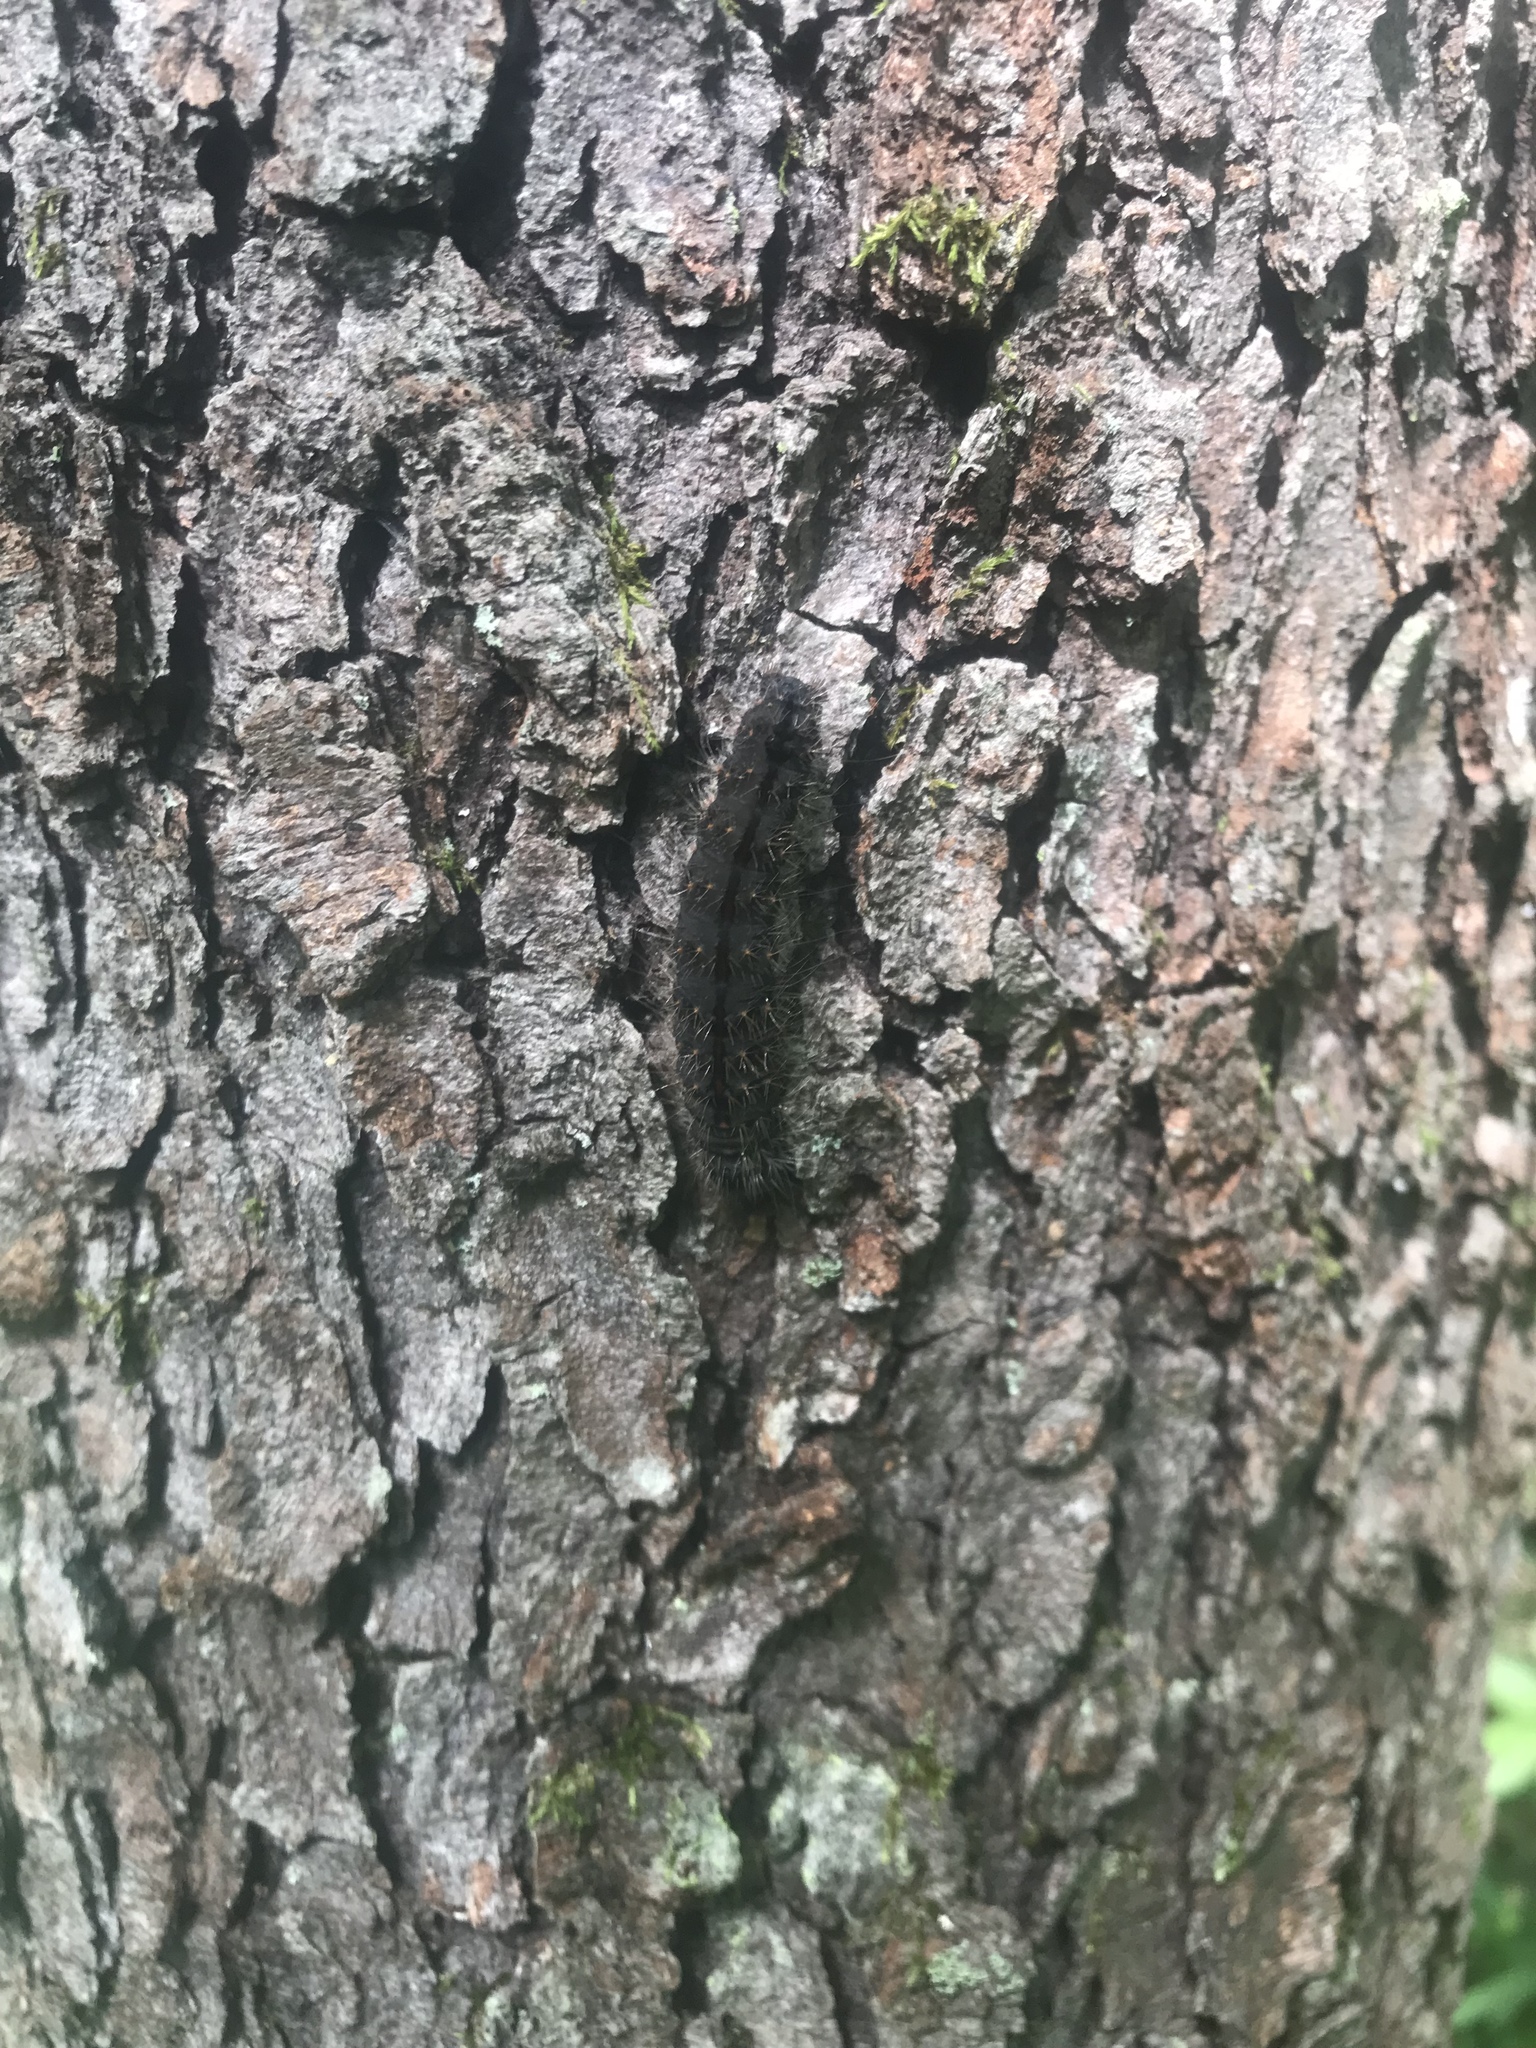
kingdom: Animalia
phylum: Arthropoda
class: Insecta
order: Lepidoptera
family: Noctuidae
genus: Acronicta
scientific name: Acronicta hasta
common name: Cherry dagger
